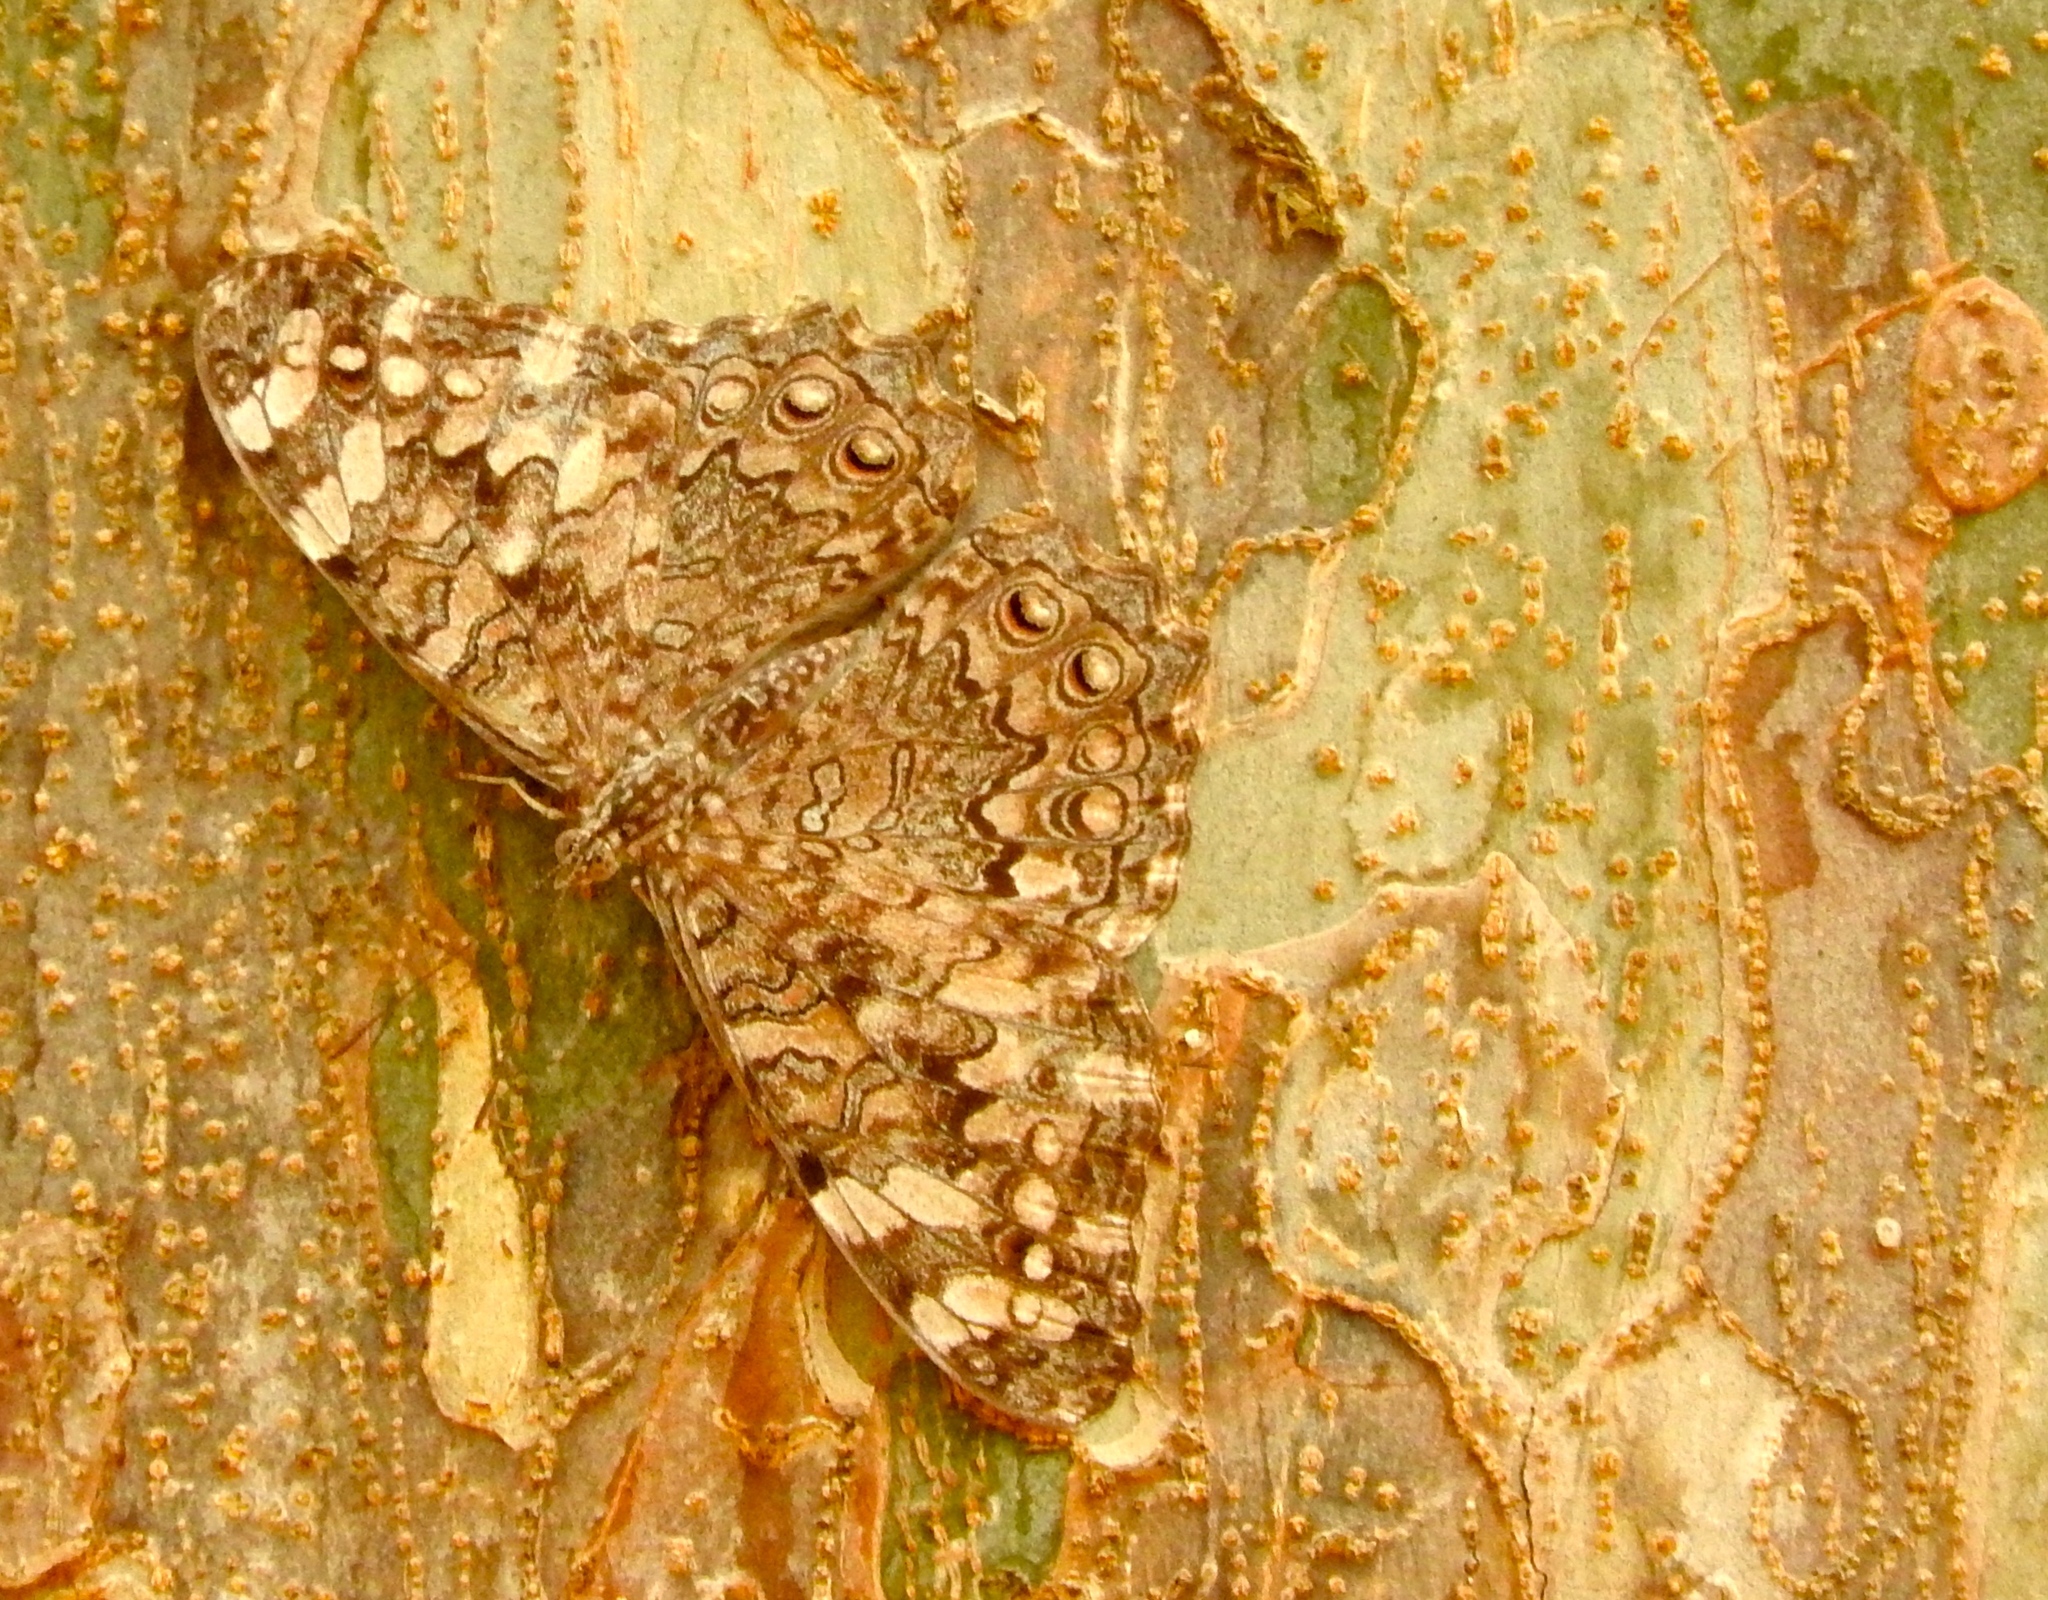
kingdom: Animalia
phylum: Arthropoda
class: Insecta
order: Lepidoptera
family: Nymphalidae
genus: Hamadryas
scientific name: Hamadryas februa
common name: Gray cracker
